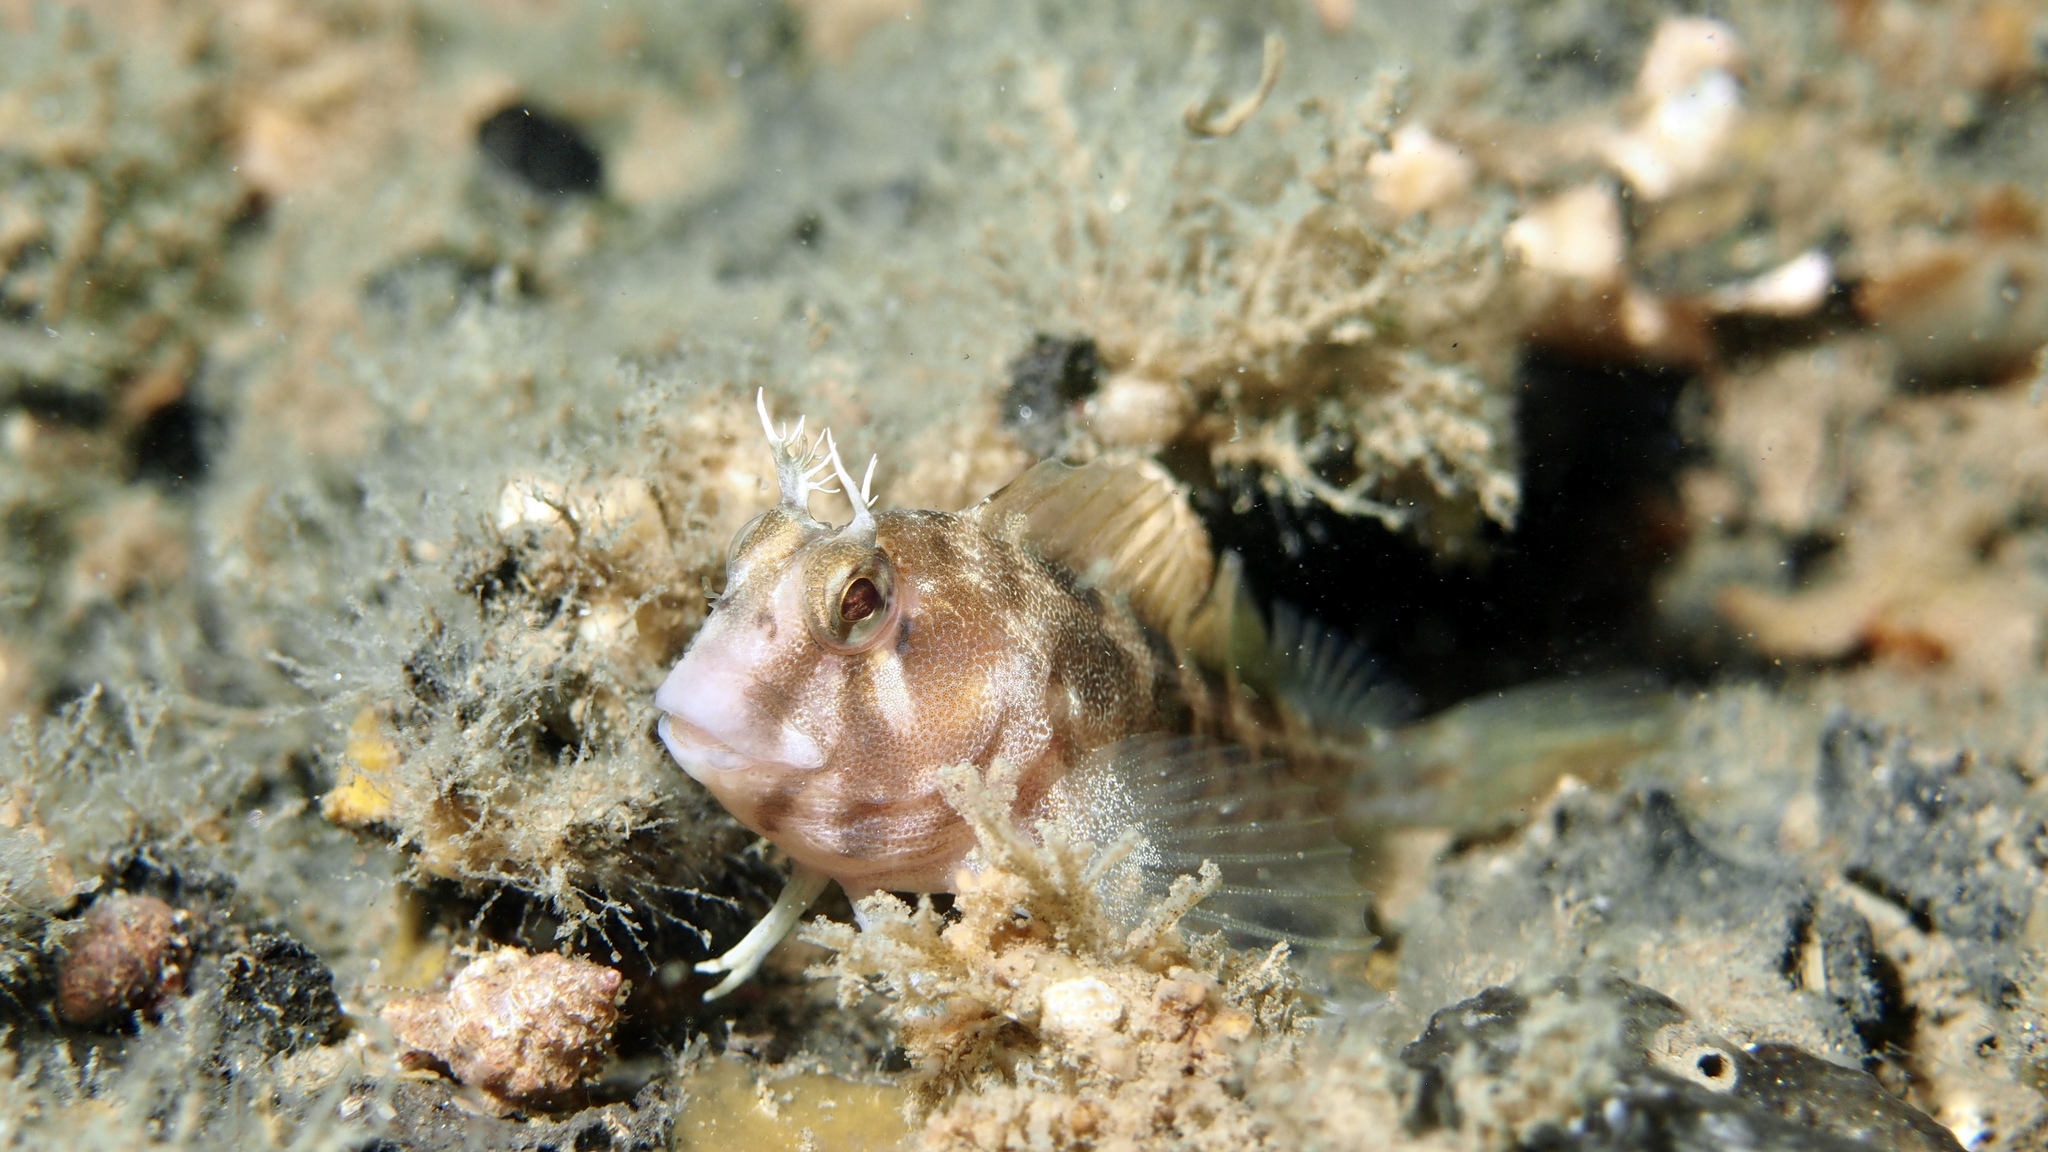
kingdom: Animalia
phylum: Chordata
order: Perciformes
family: Blenniidae
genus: Parablennius
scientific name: Parablennius tasmanianus
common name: Tasmanian blenny
